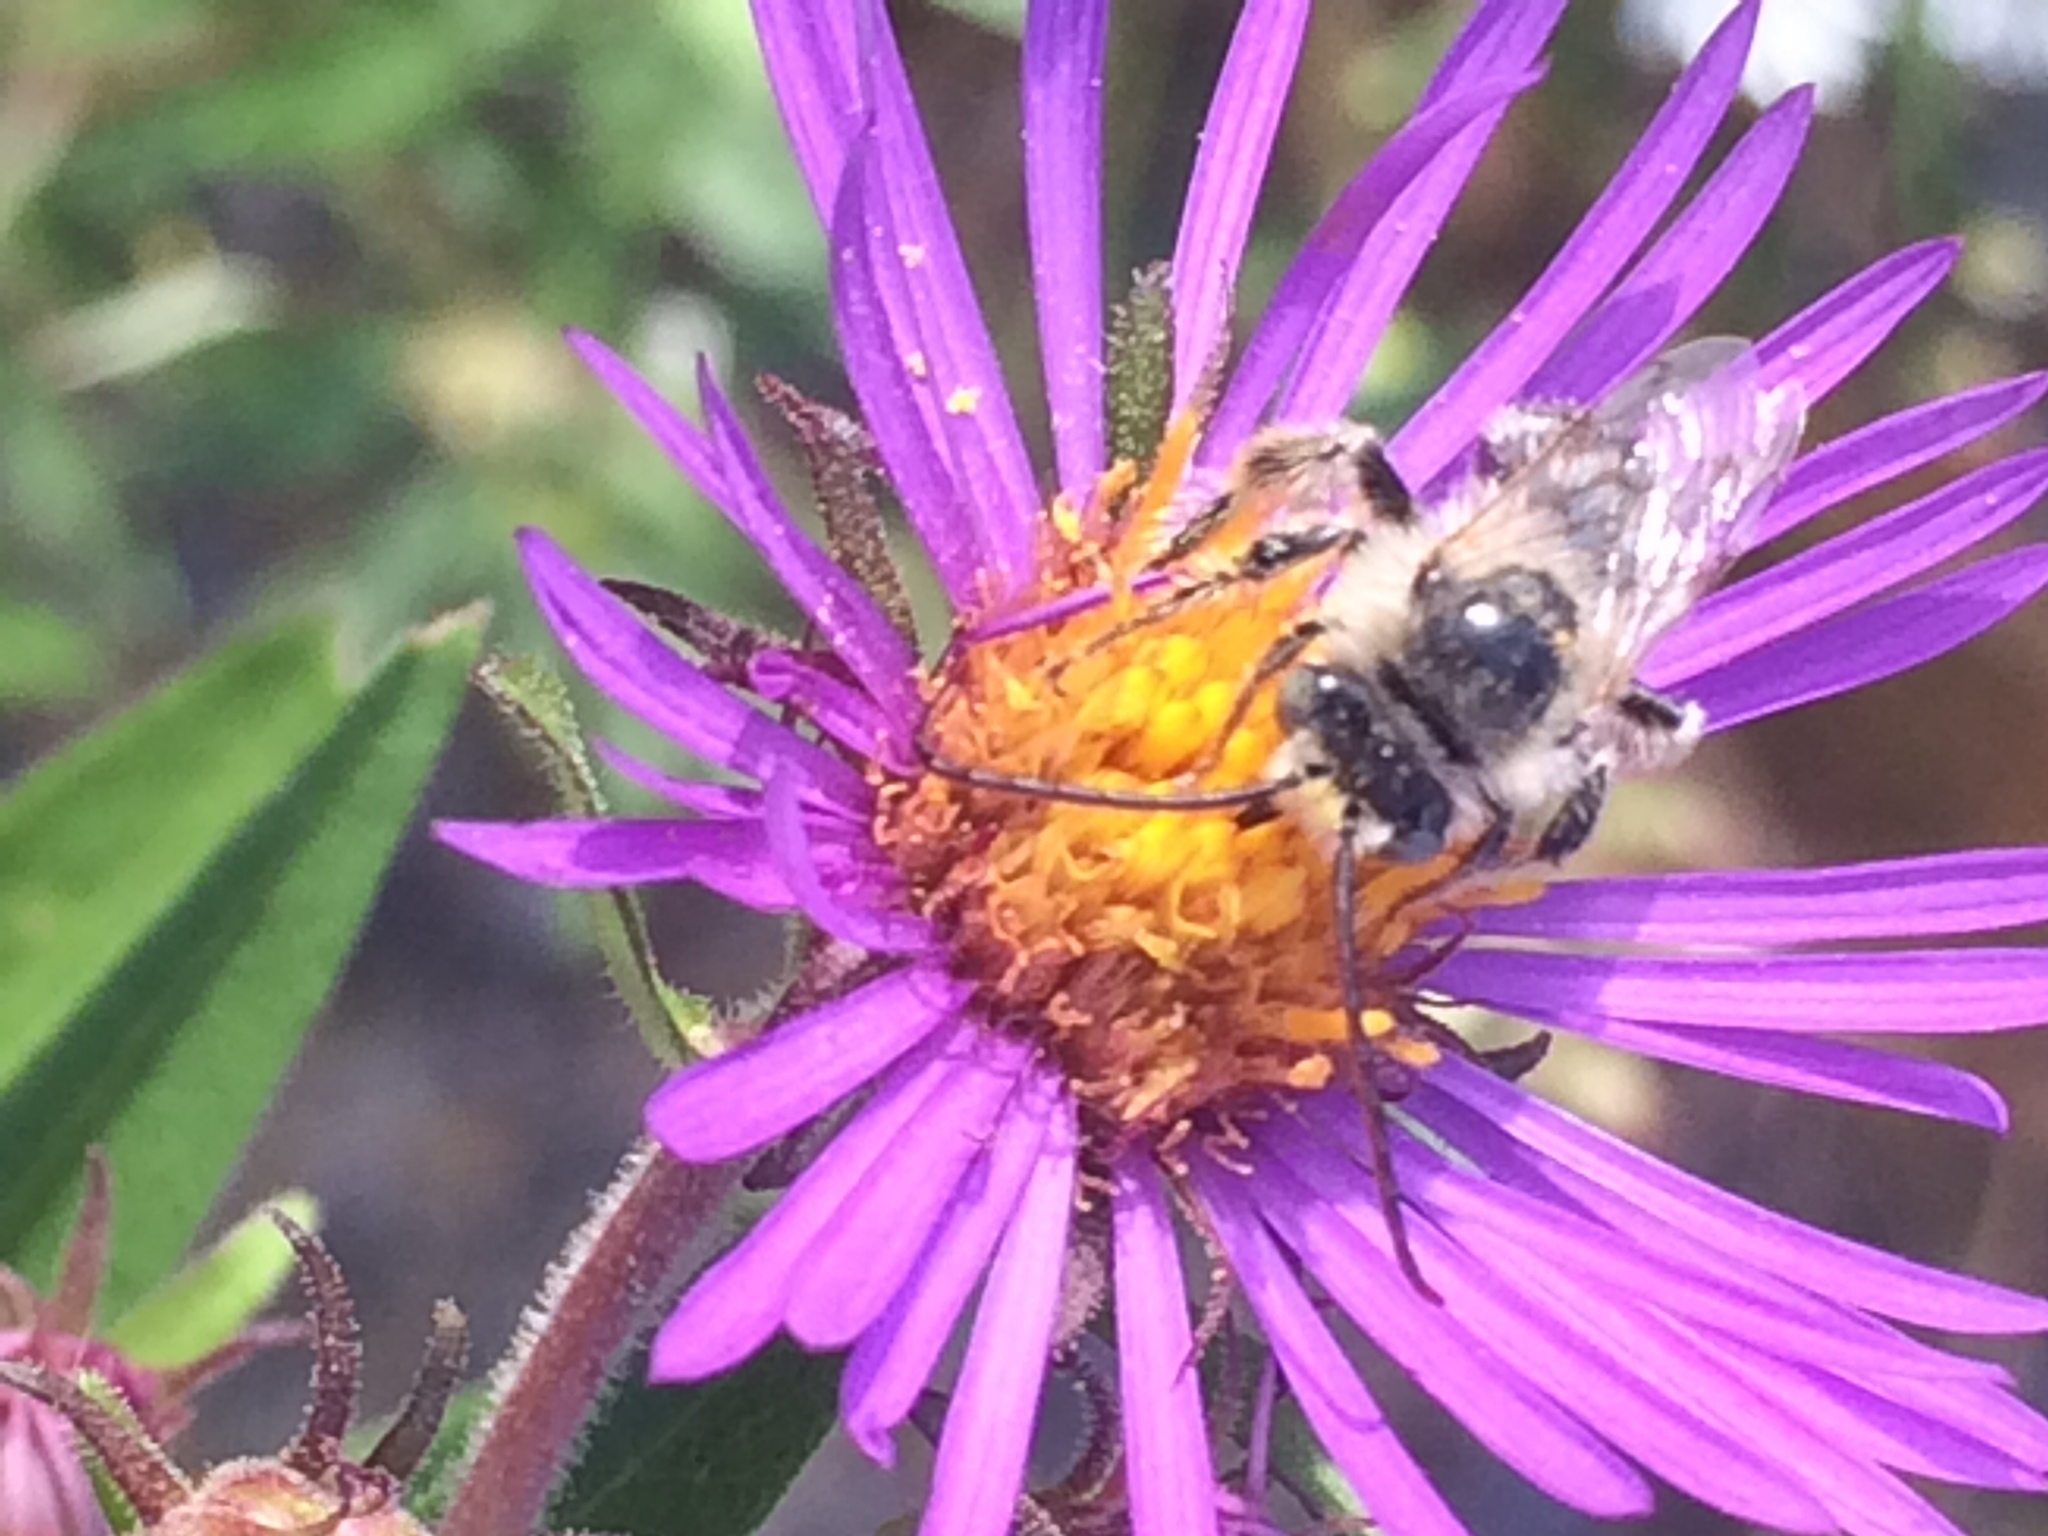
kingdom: Animalia
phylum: Arthropoda
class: Insecta
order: Hymenoptera
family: Apidae
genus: Melissodes
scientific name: Melissodes druriellus
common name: Drury's long-horned bee
